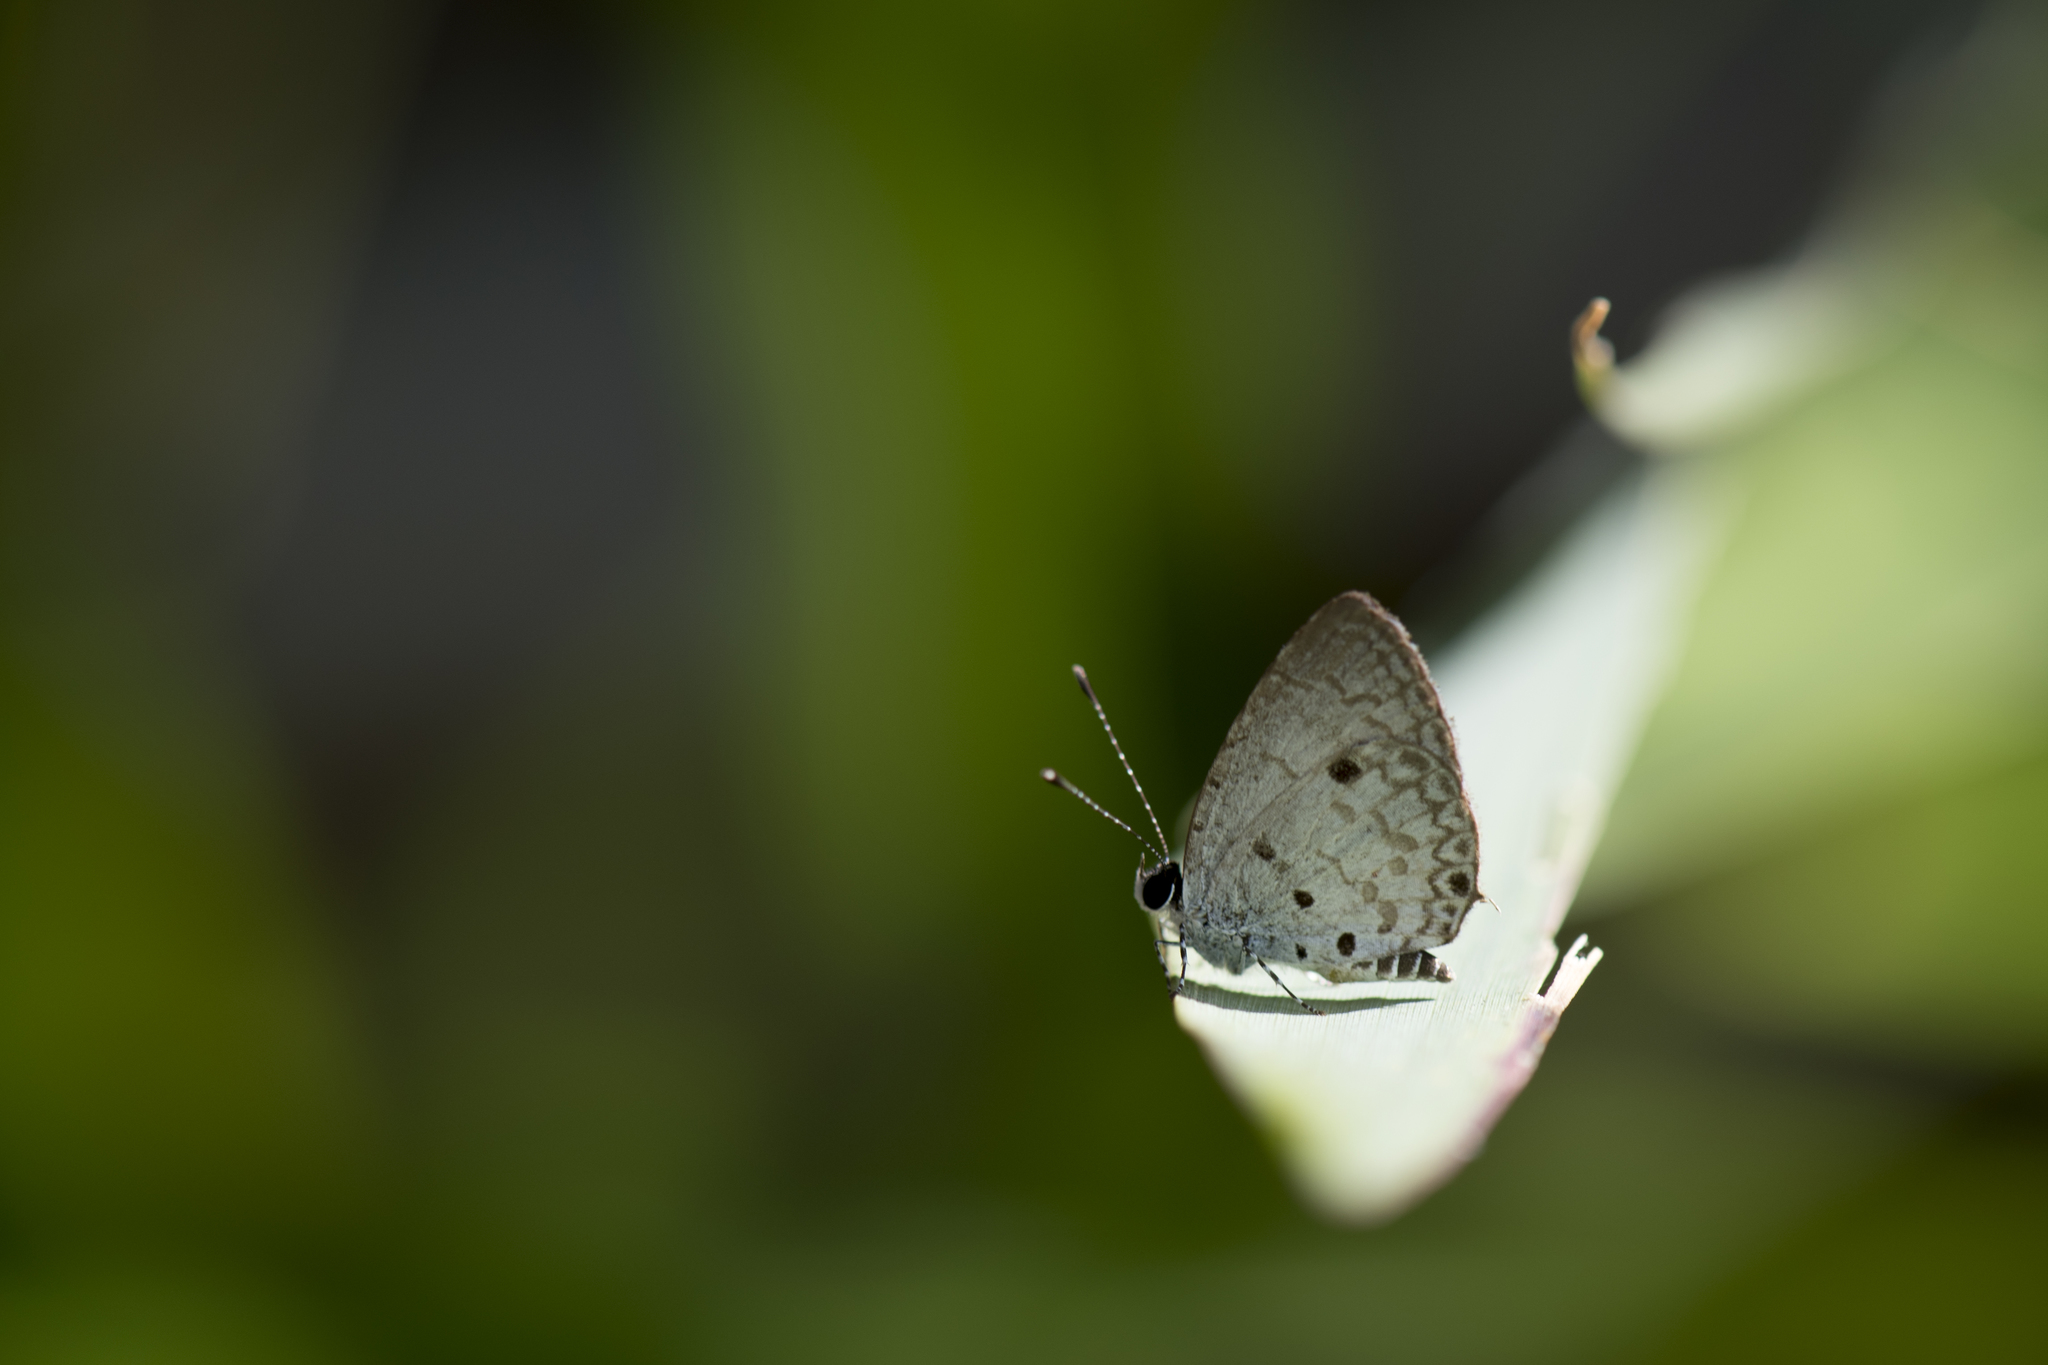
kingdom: Animalia
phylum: Arthropoda
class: Insecta
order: Lepidoptera
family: Lycaenidae
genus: Megisba
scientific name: Megisba malaya
